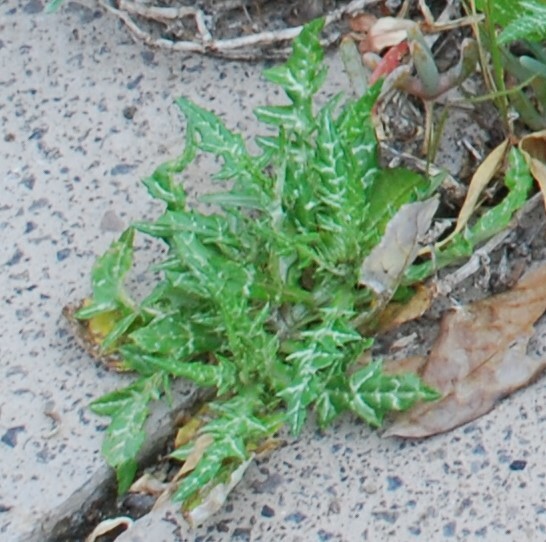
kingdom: Plantae
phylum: Tracheophyta
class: Magnoliopsida
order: Asterales
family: Asteraceae
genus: Galactites
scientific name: Galactites tomentosa
